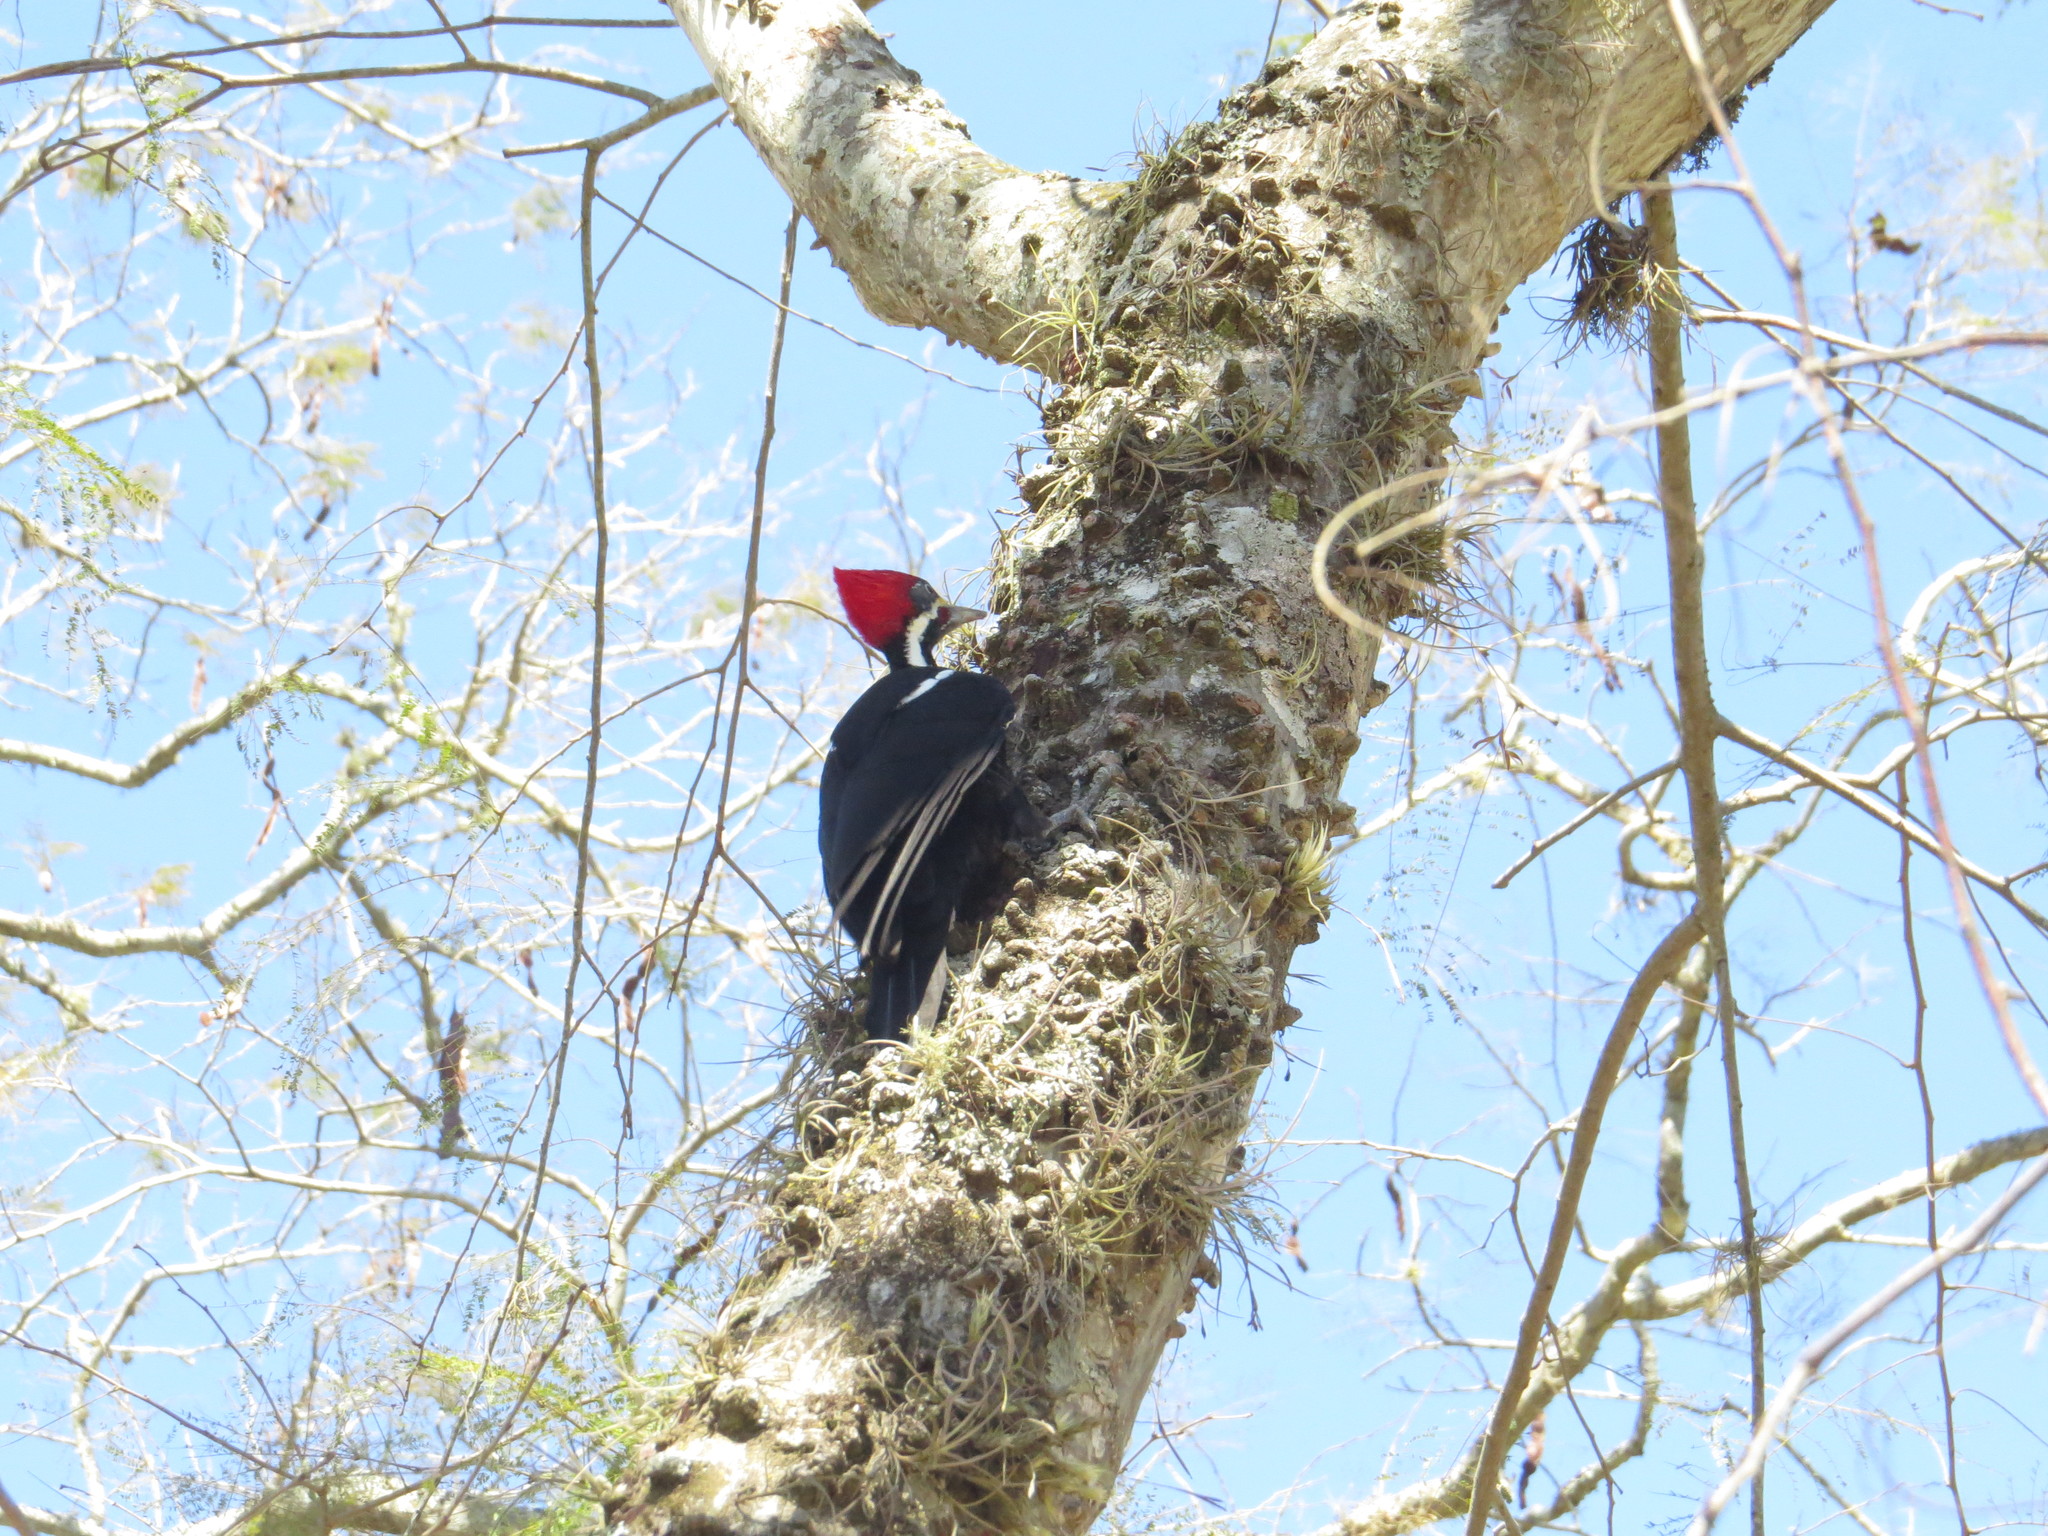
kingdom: Animalia
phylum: Chordata
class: Aves
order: Piciformes
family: Picidae
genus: Dryocopus
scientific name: Dryocopus schulzii
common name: Black-bodied woodpecker
